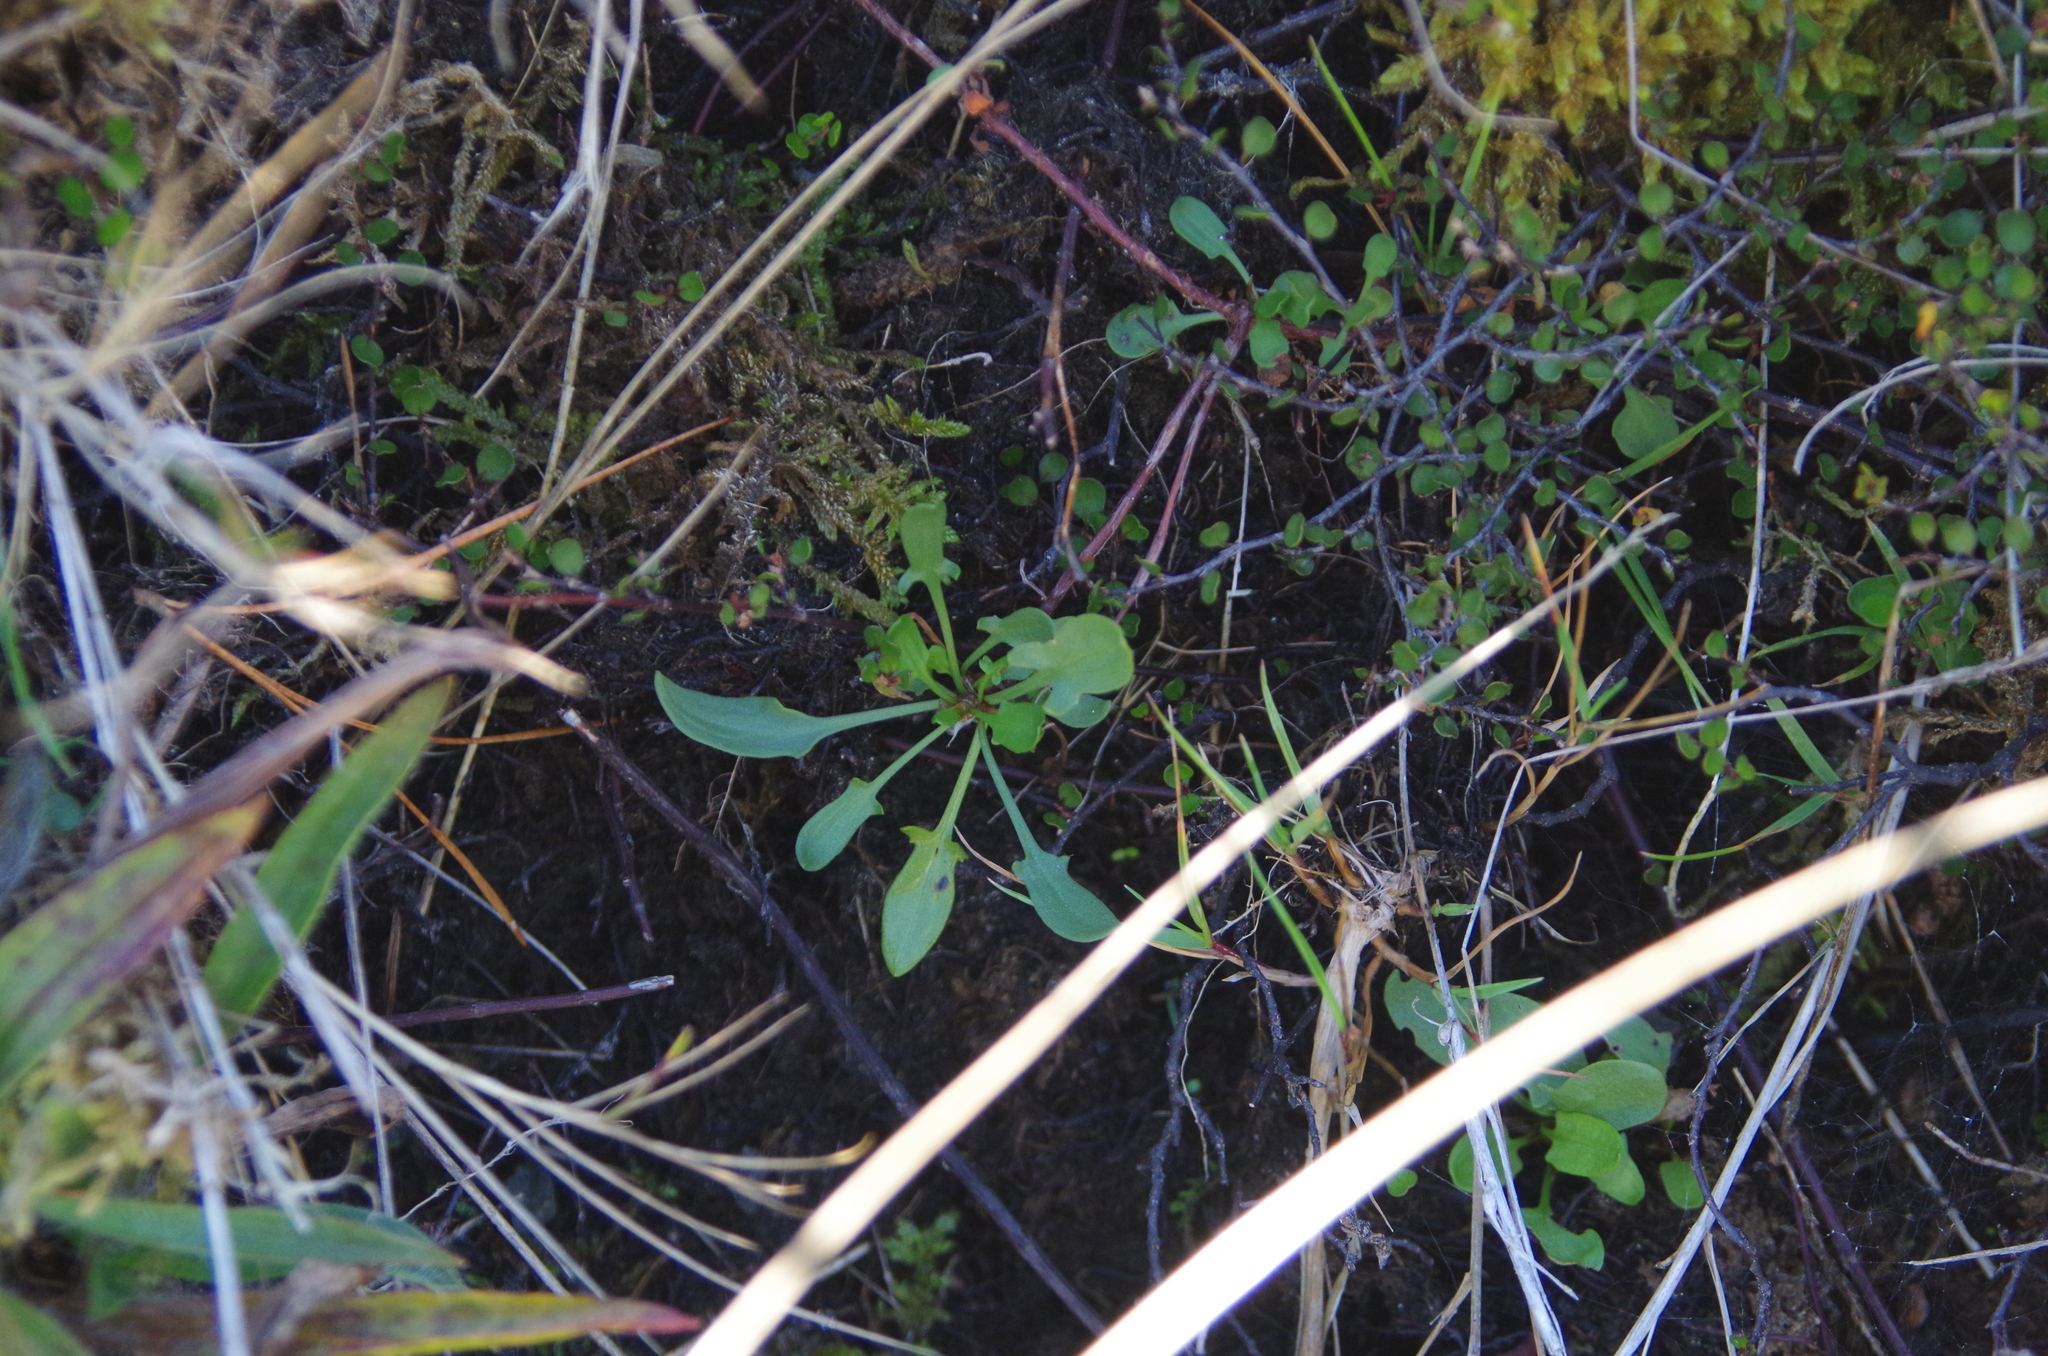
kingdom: Plantae
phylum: Tracheophyta
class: Magnoliopsida
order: Caryophyllales
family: Polygonaceae
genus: Rumex
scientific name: Rumex acetosella
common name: Common sheep sorrel
